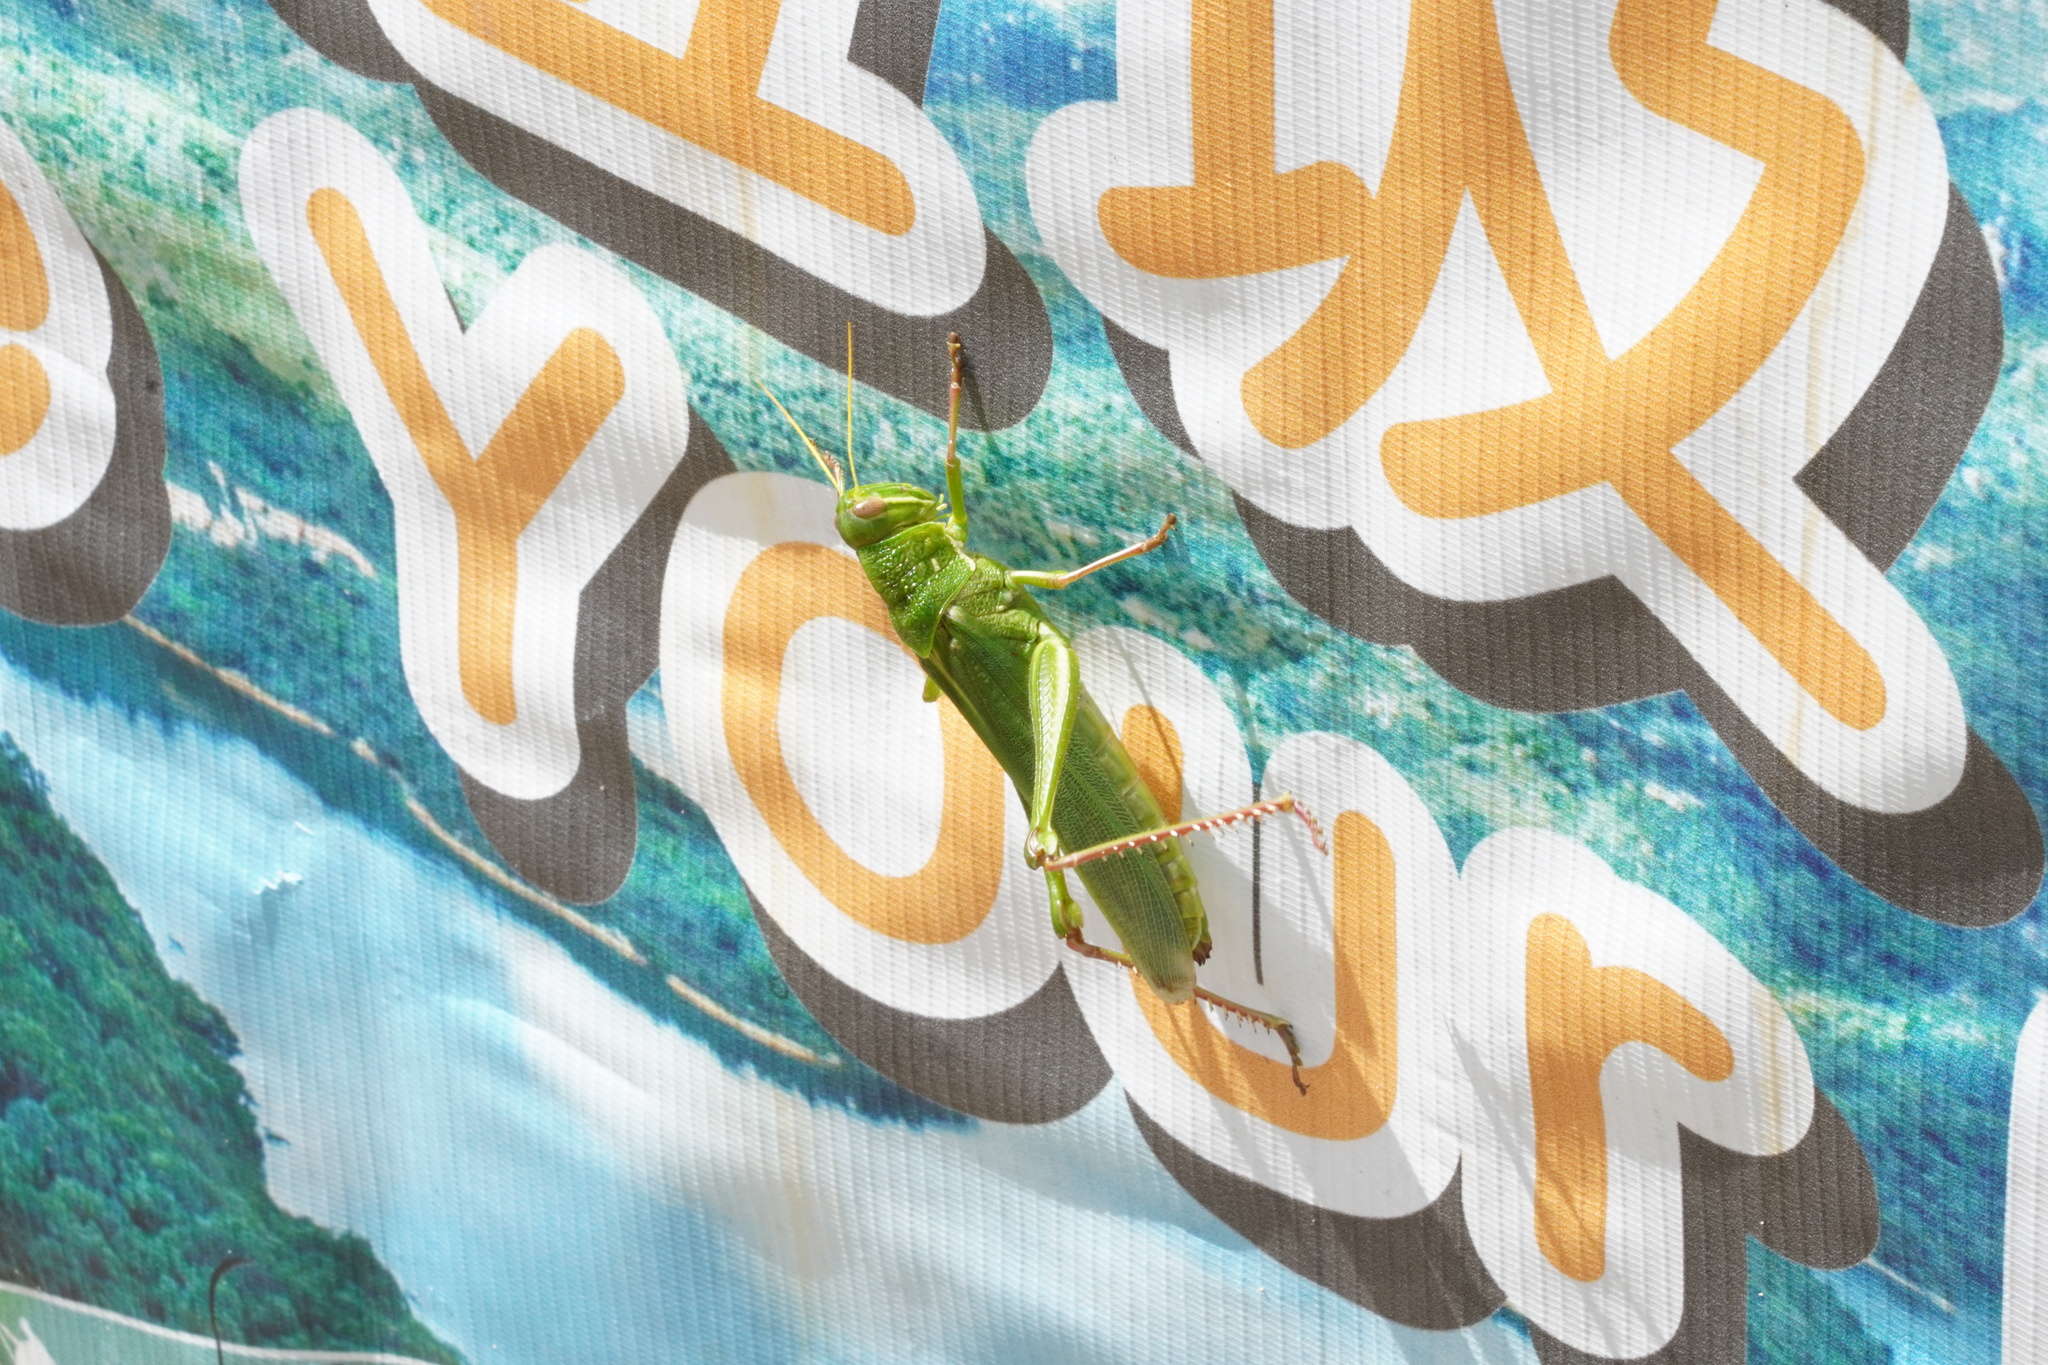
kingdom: Animalia
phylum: Arthropoda
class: Insecta
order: Orthoptera
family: Acrididae
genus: Chondracris
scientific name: Chondracris rosea
